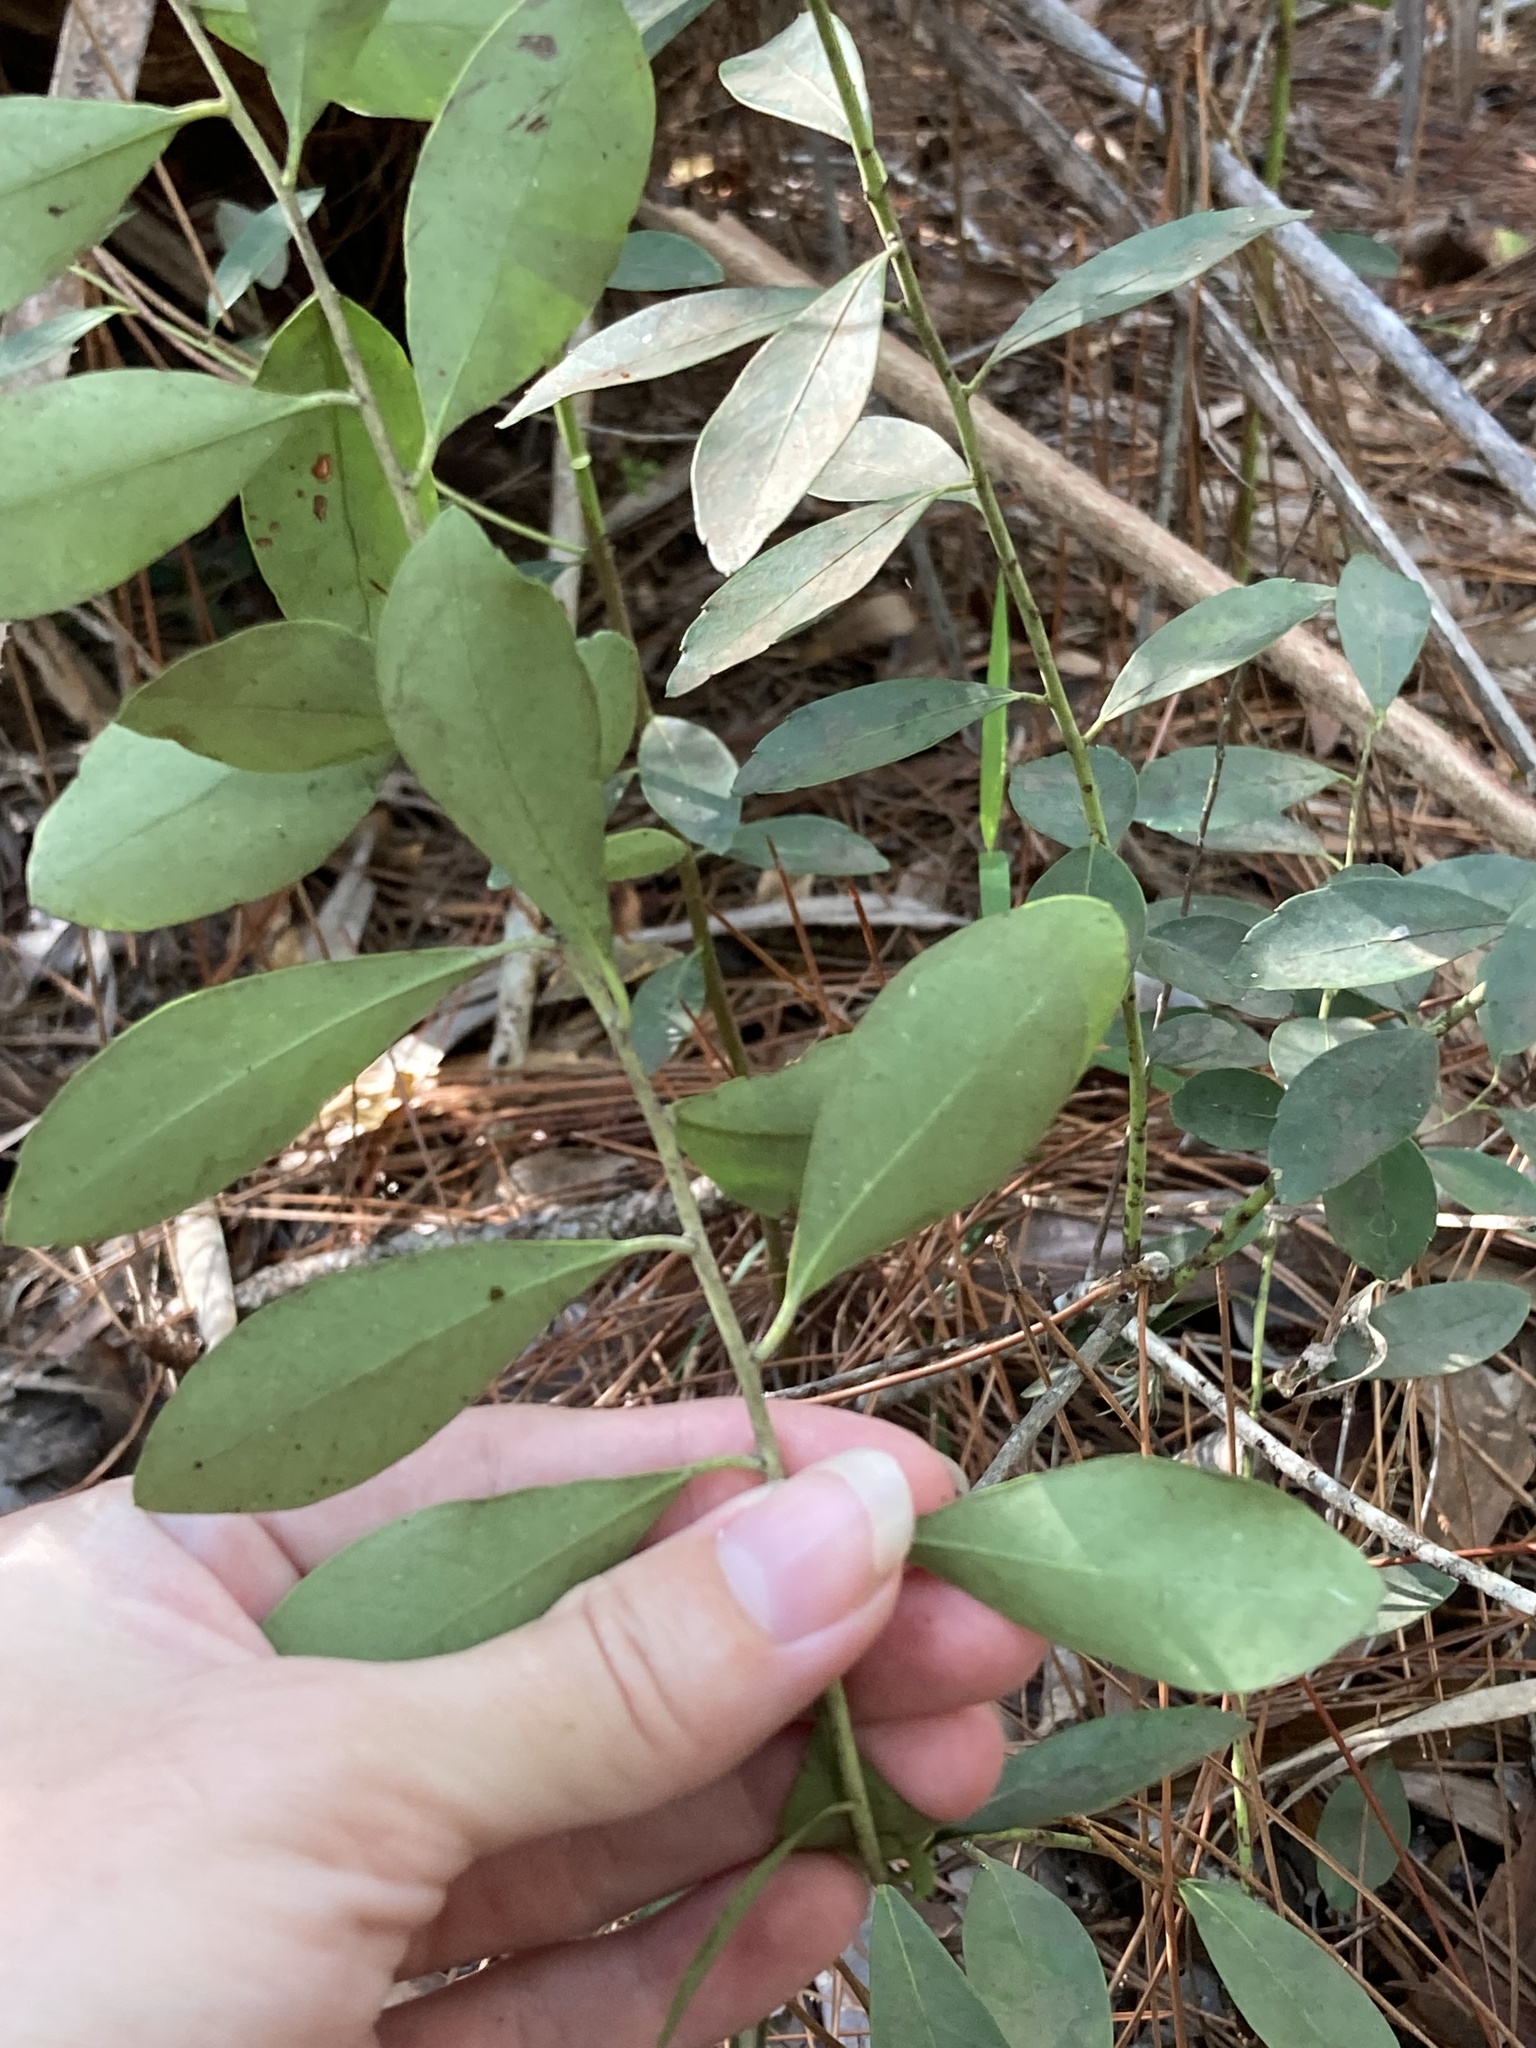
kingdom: Plantae
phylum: Tracheophyta
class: Magnoliopsida
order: Aquifoliales
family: Aquifoliaceae
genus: Ilex
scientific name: Ilex glabra
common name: Bitter gallberry
